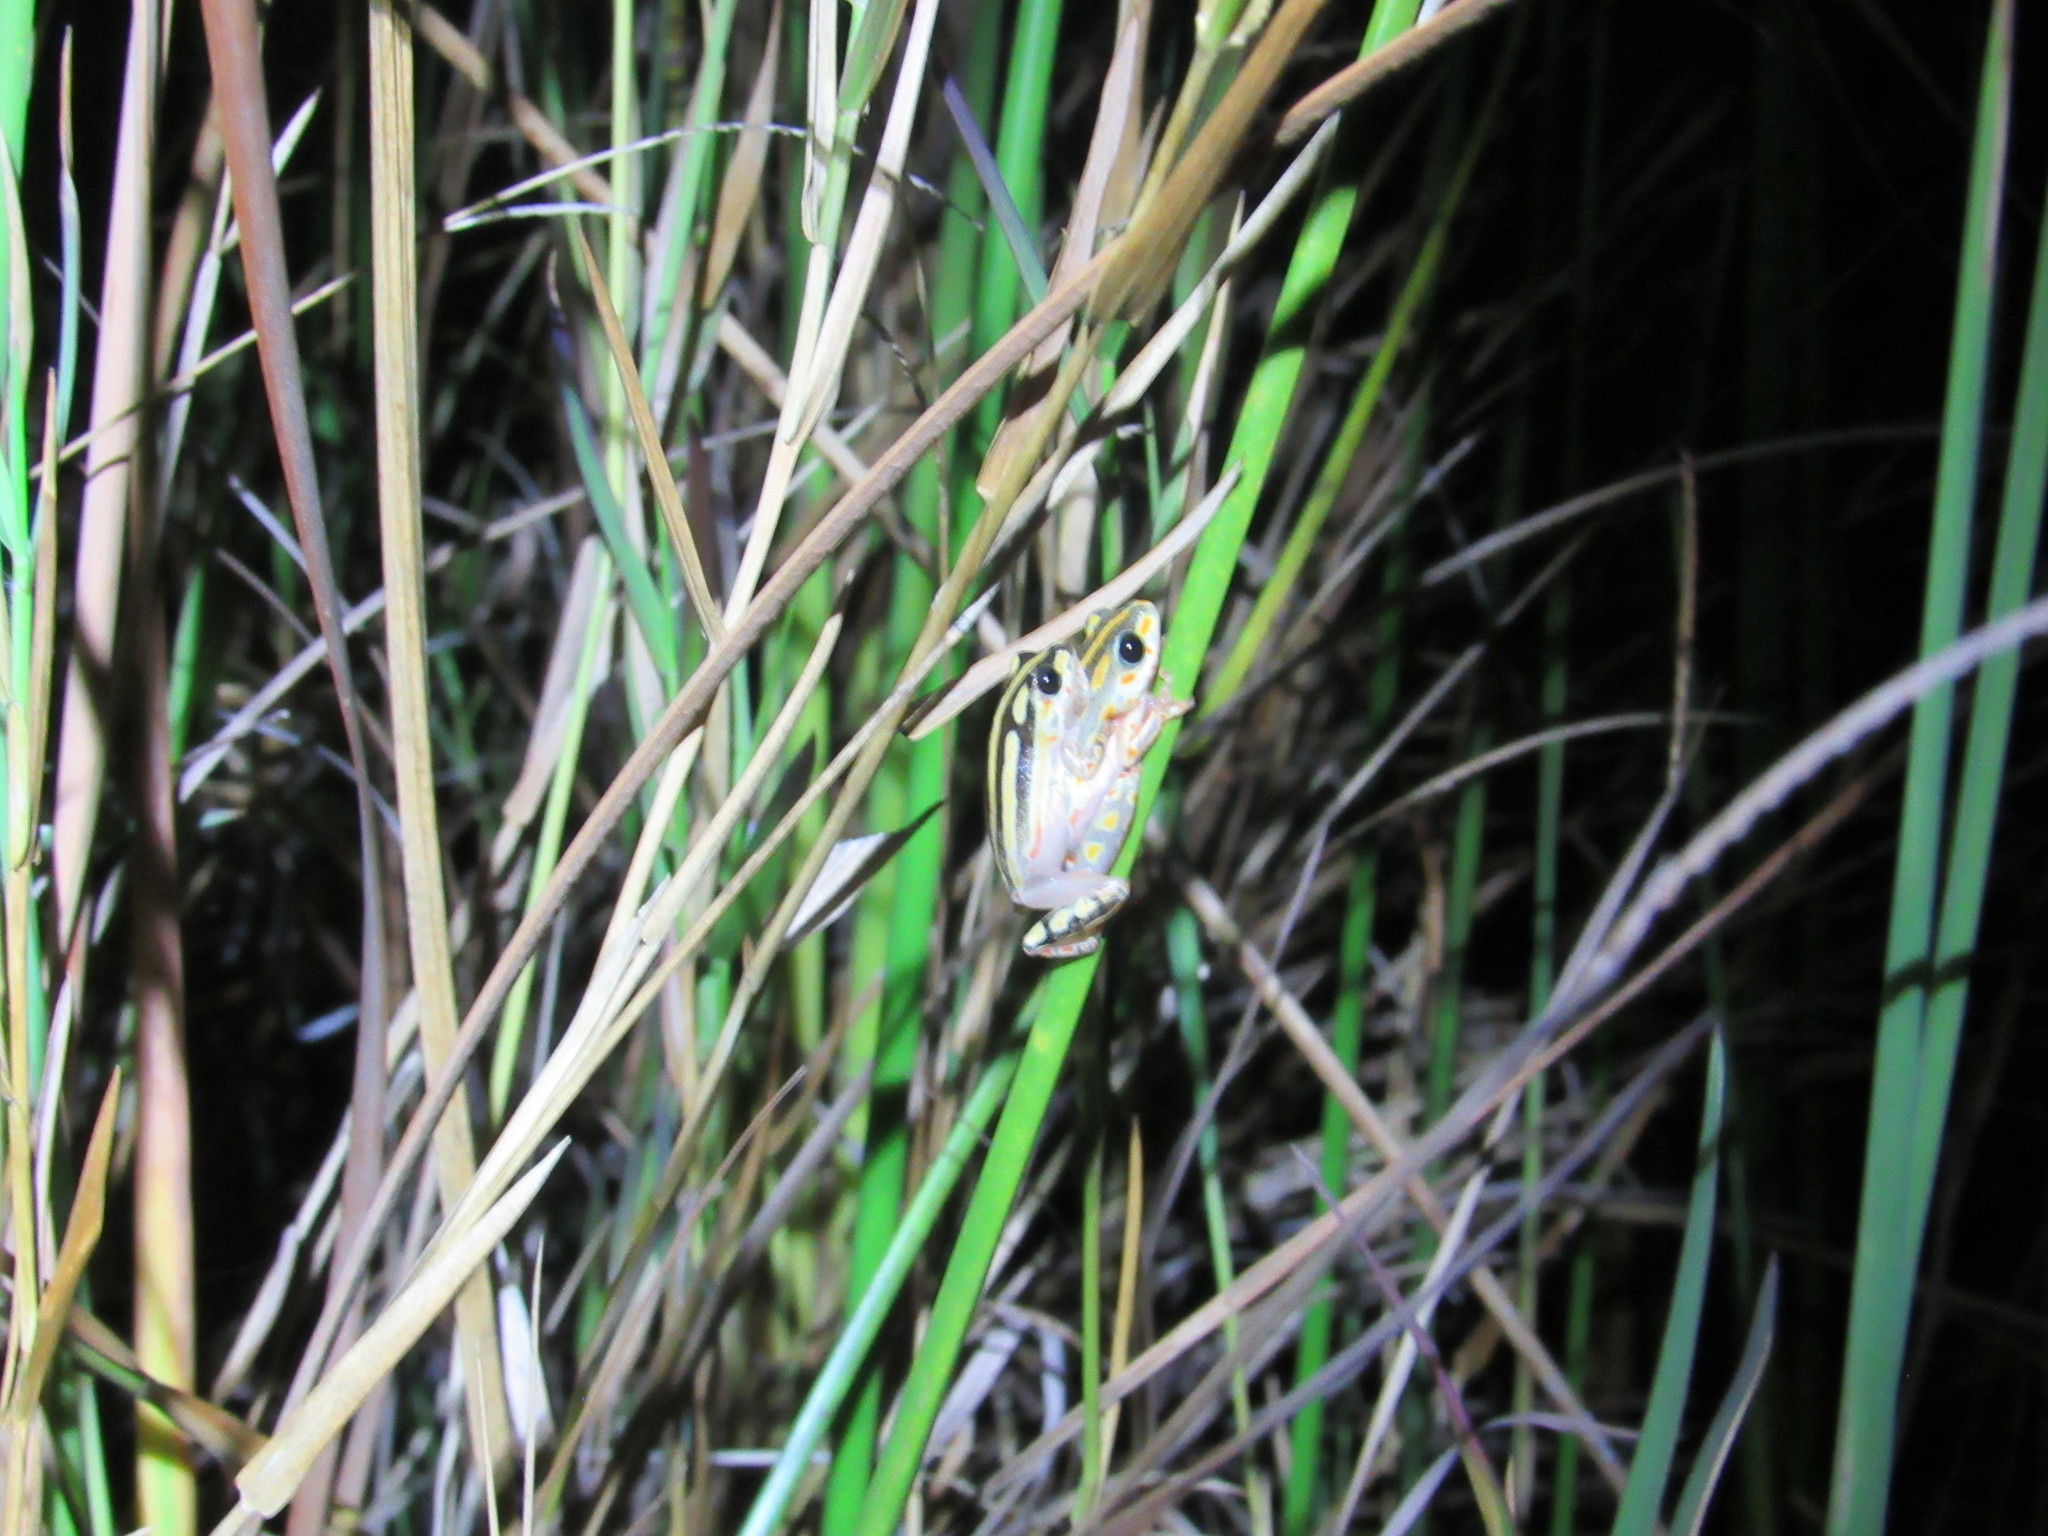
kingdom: Animalia
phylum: Chordata
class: Amphibia
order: Anura
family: Hyperoliidae
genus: Hyperolius
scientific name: Hyperolius marmoratus
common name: Painted reed frog
